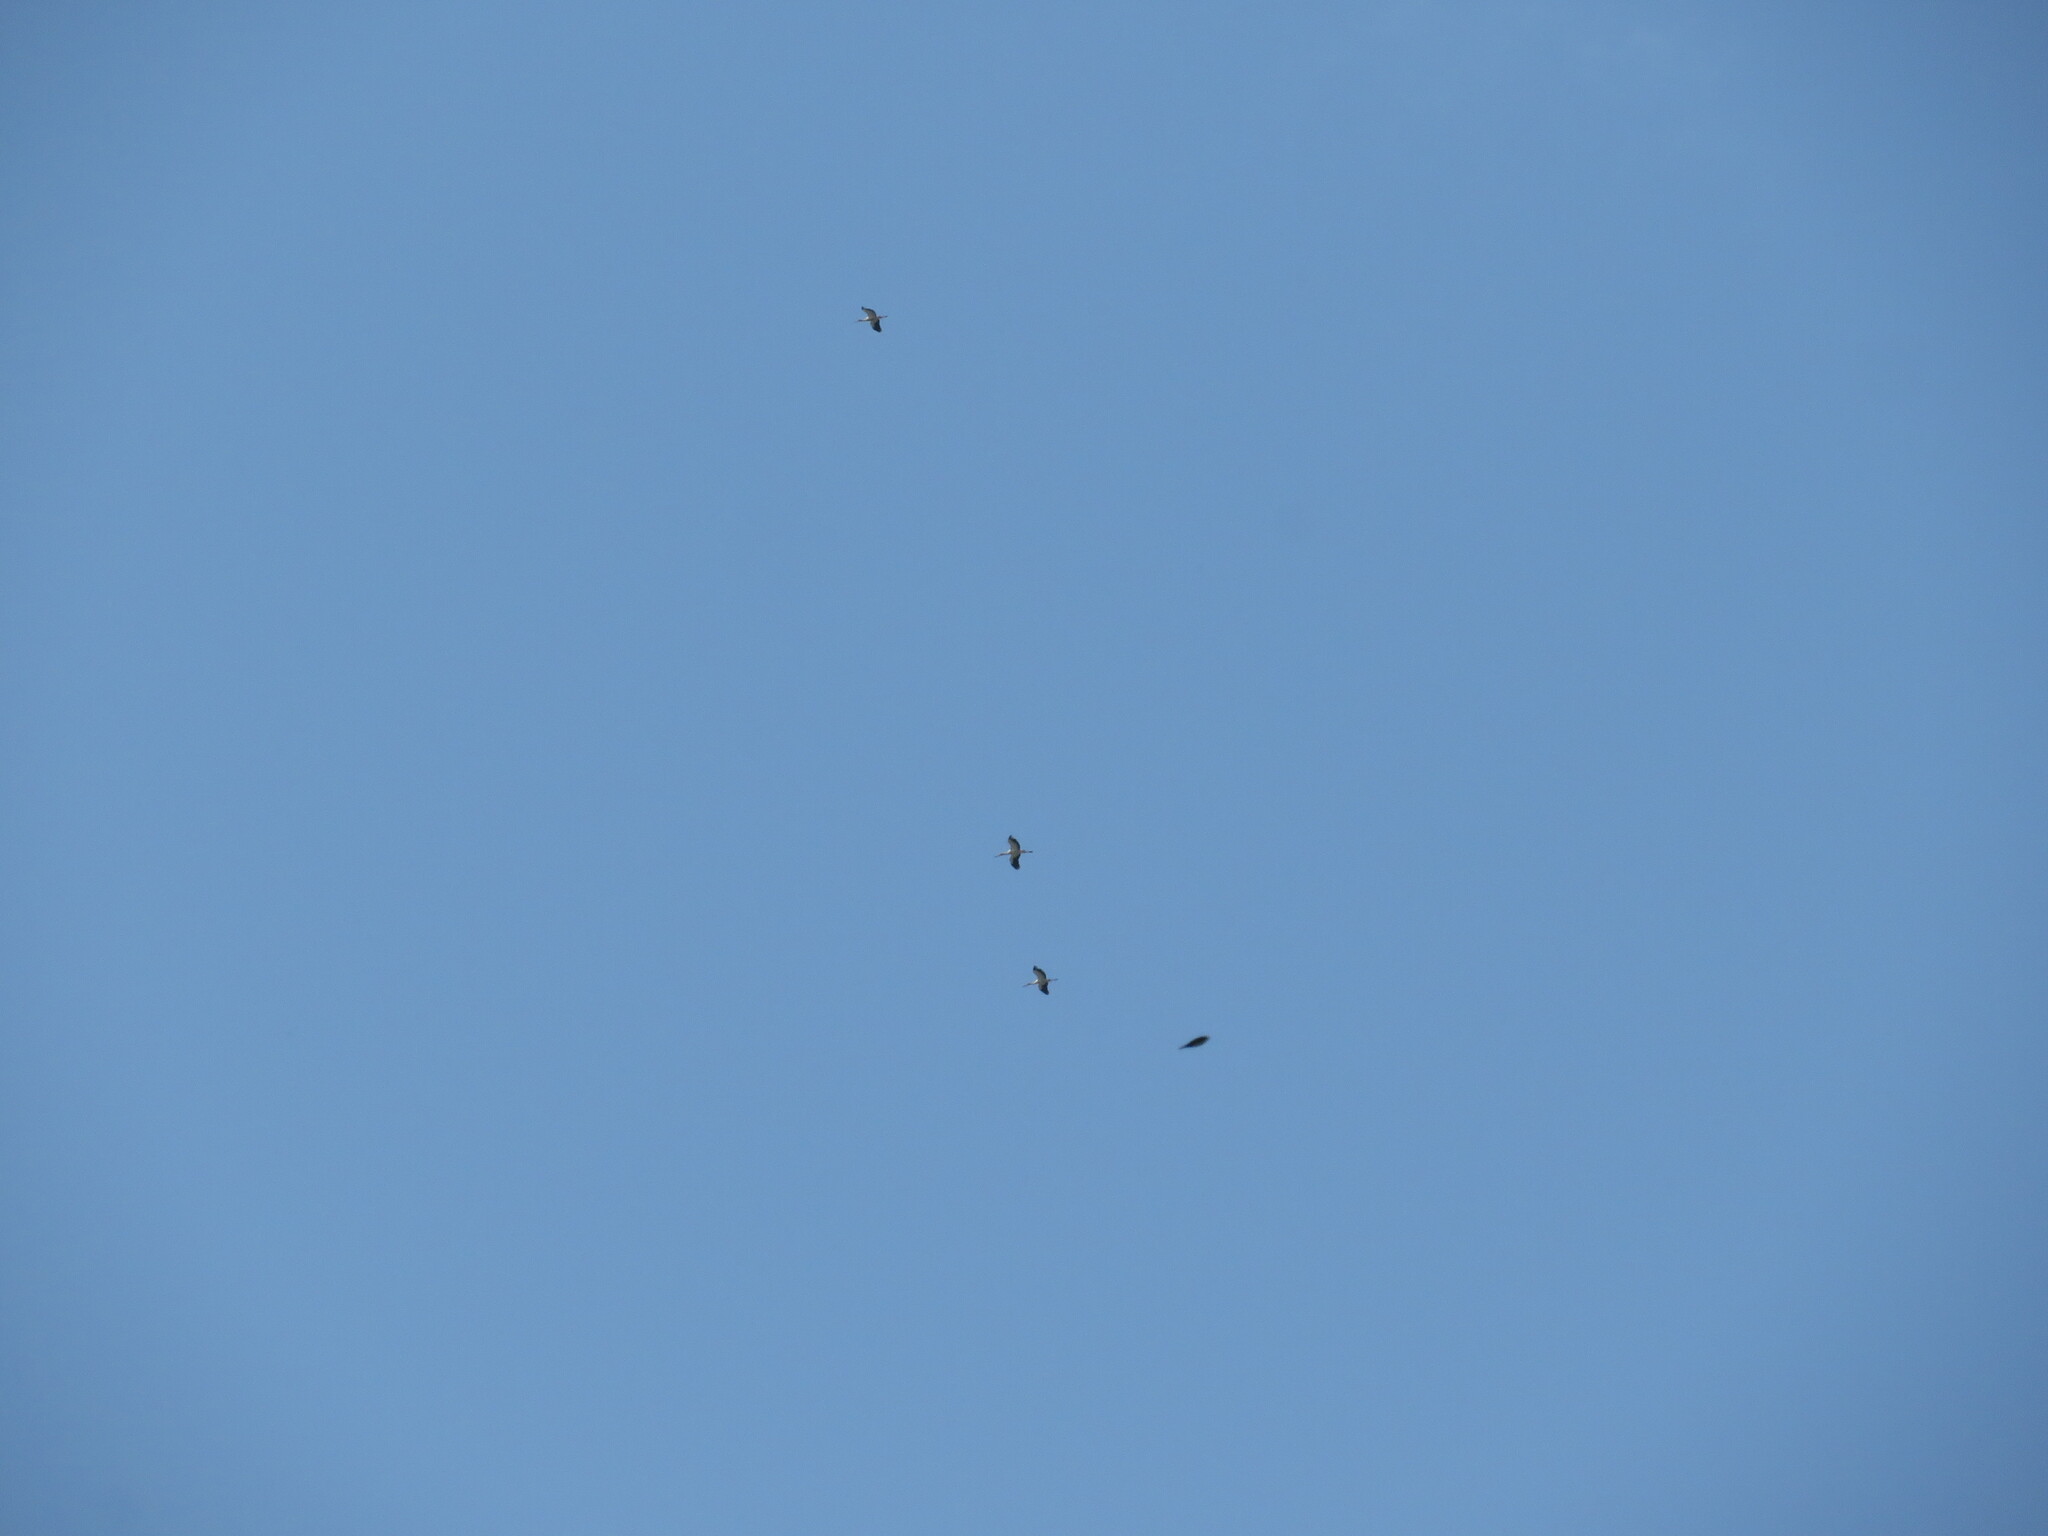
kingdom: Animalia
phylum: Chordata
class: Aves
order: Ciconiiformes
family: Ciconiidae
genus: Ciconia
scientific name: Ciconia maguari
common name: Maguari stork
